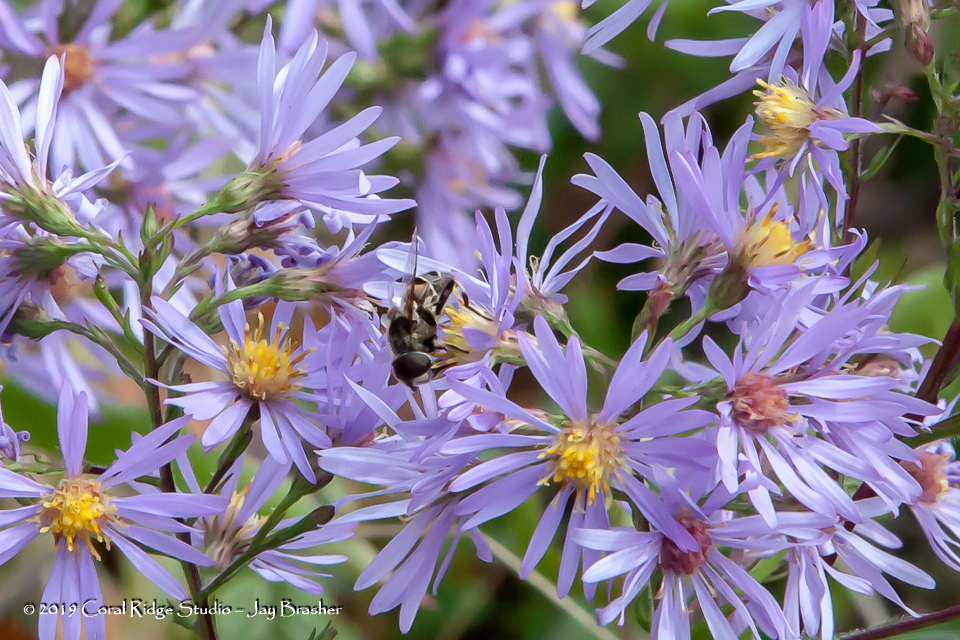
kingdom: Plantae
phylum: Tracheophyta
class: Magnoliopsida
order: Asterales
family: Asteraceae
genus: Eurybia
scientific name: Eurybia macrophylla
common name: Big-leaved aster
